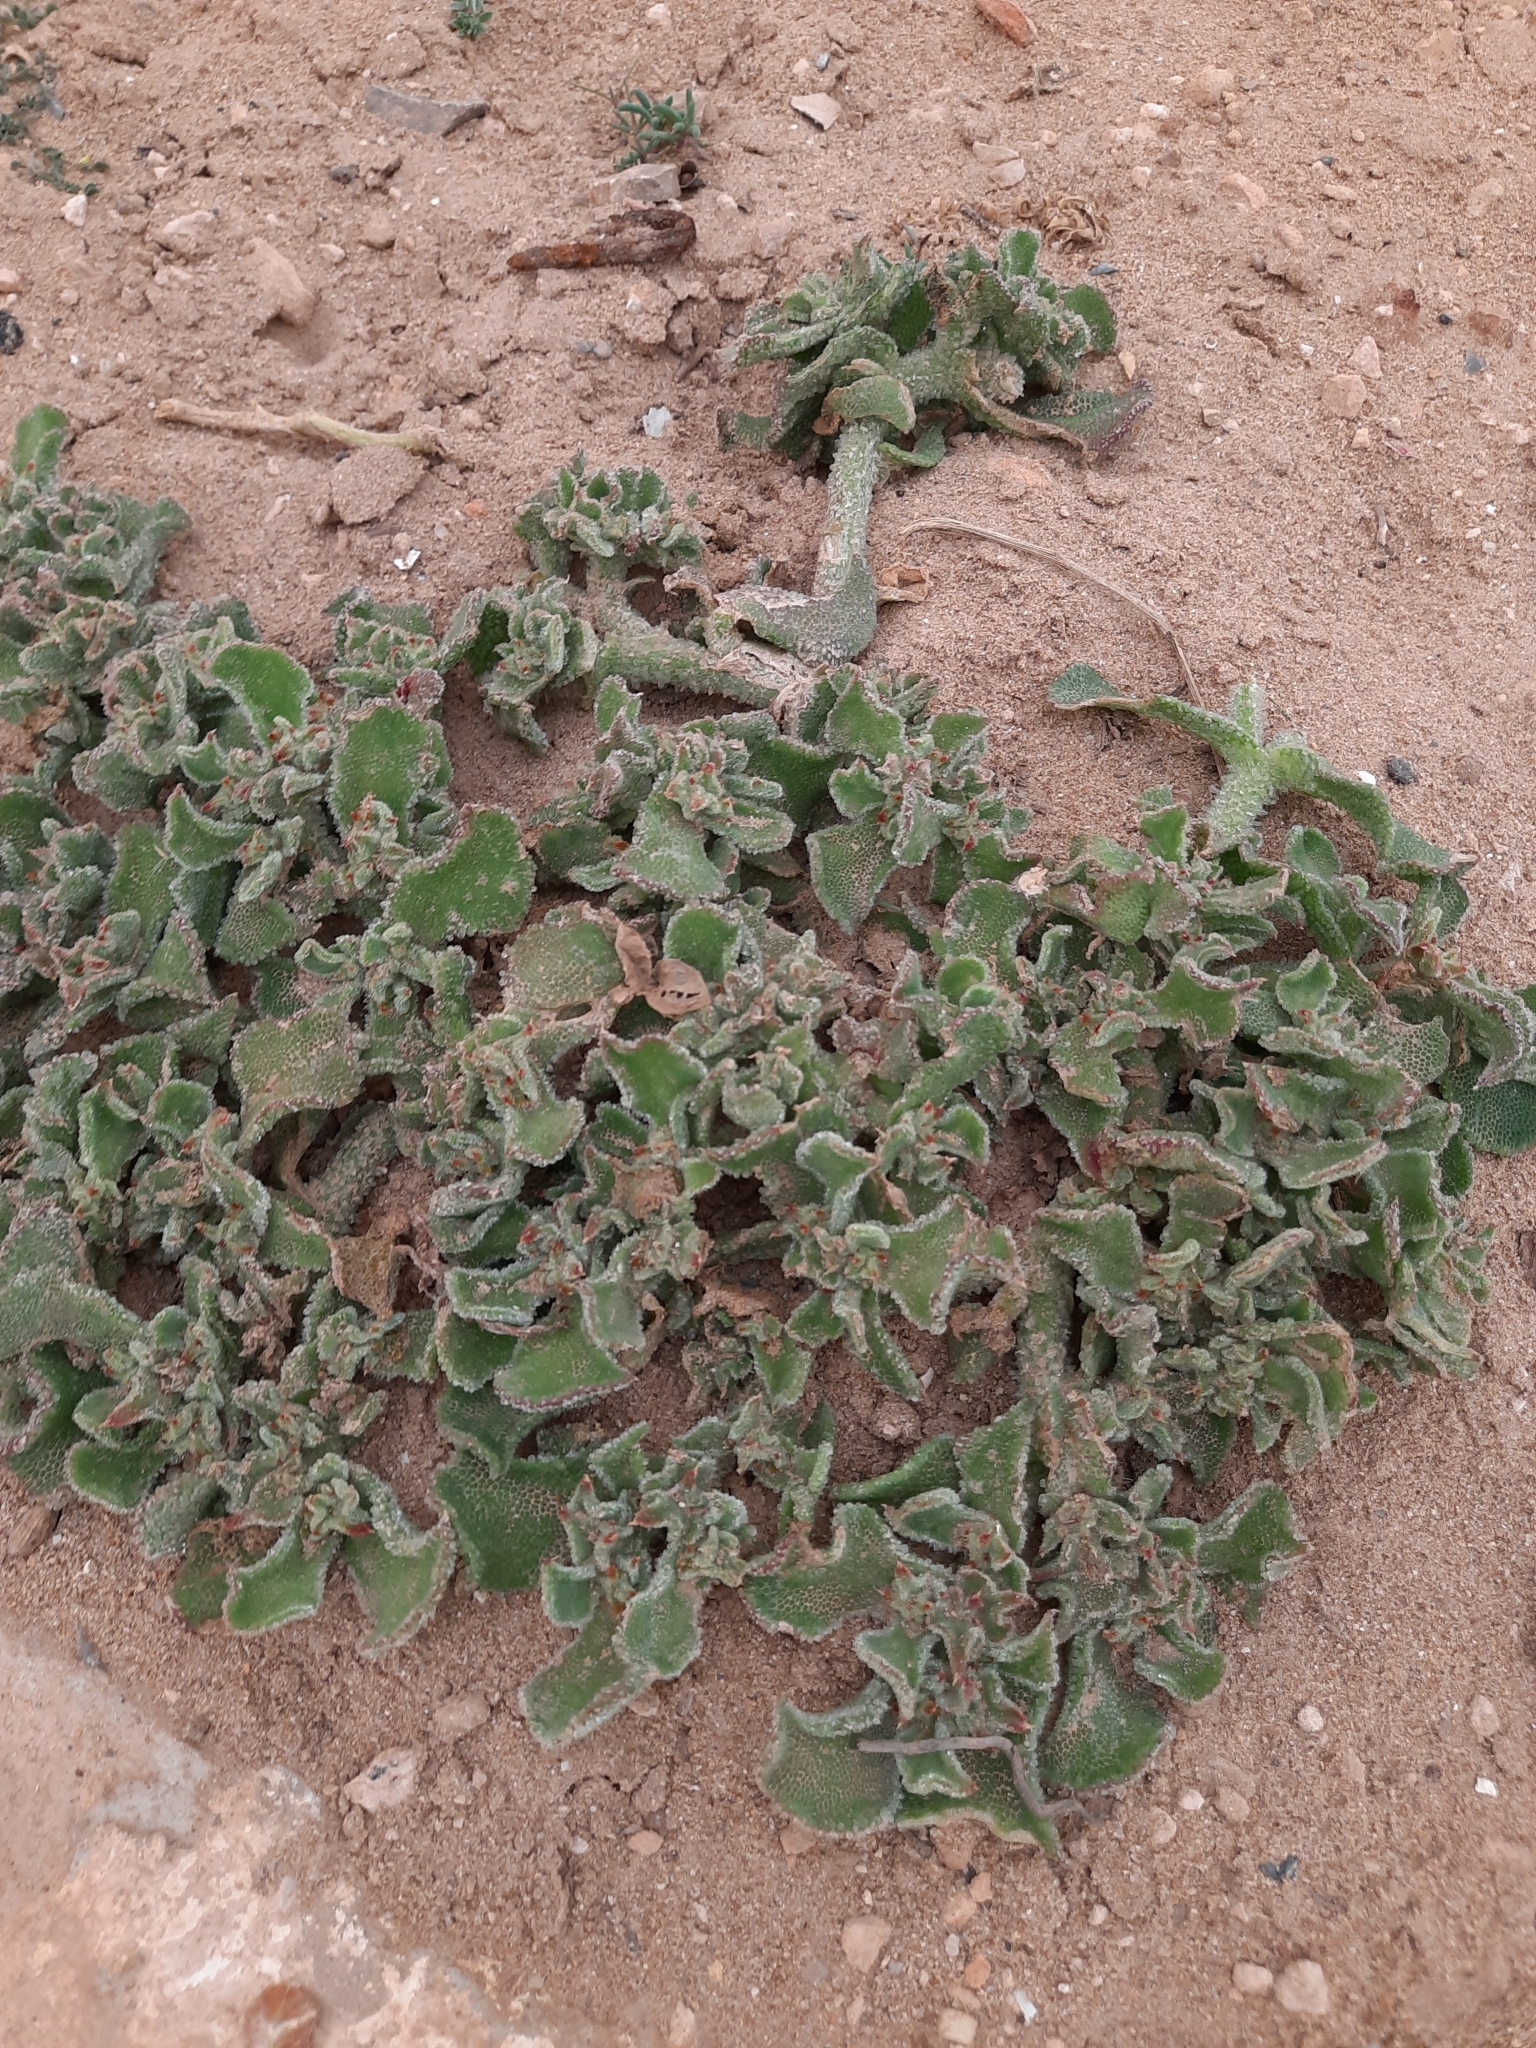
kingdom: Plantae
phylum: Tracheophyta
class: Magnoliopsida
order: Caryophyllales
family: Aizoaceae
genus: Mesembryanthemum
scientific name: Mesembryanthemum crystallinum
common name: Common iceplant
